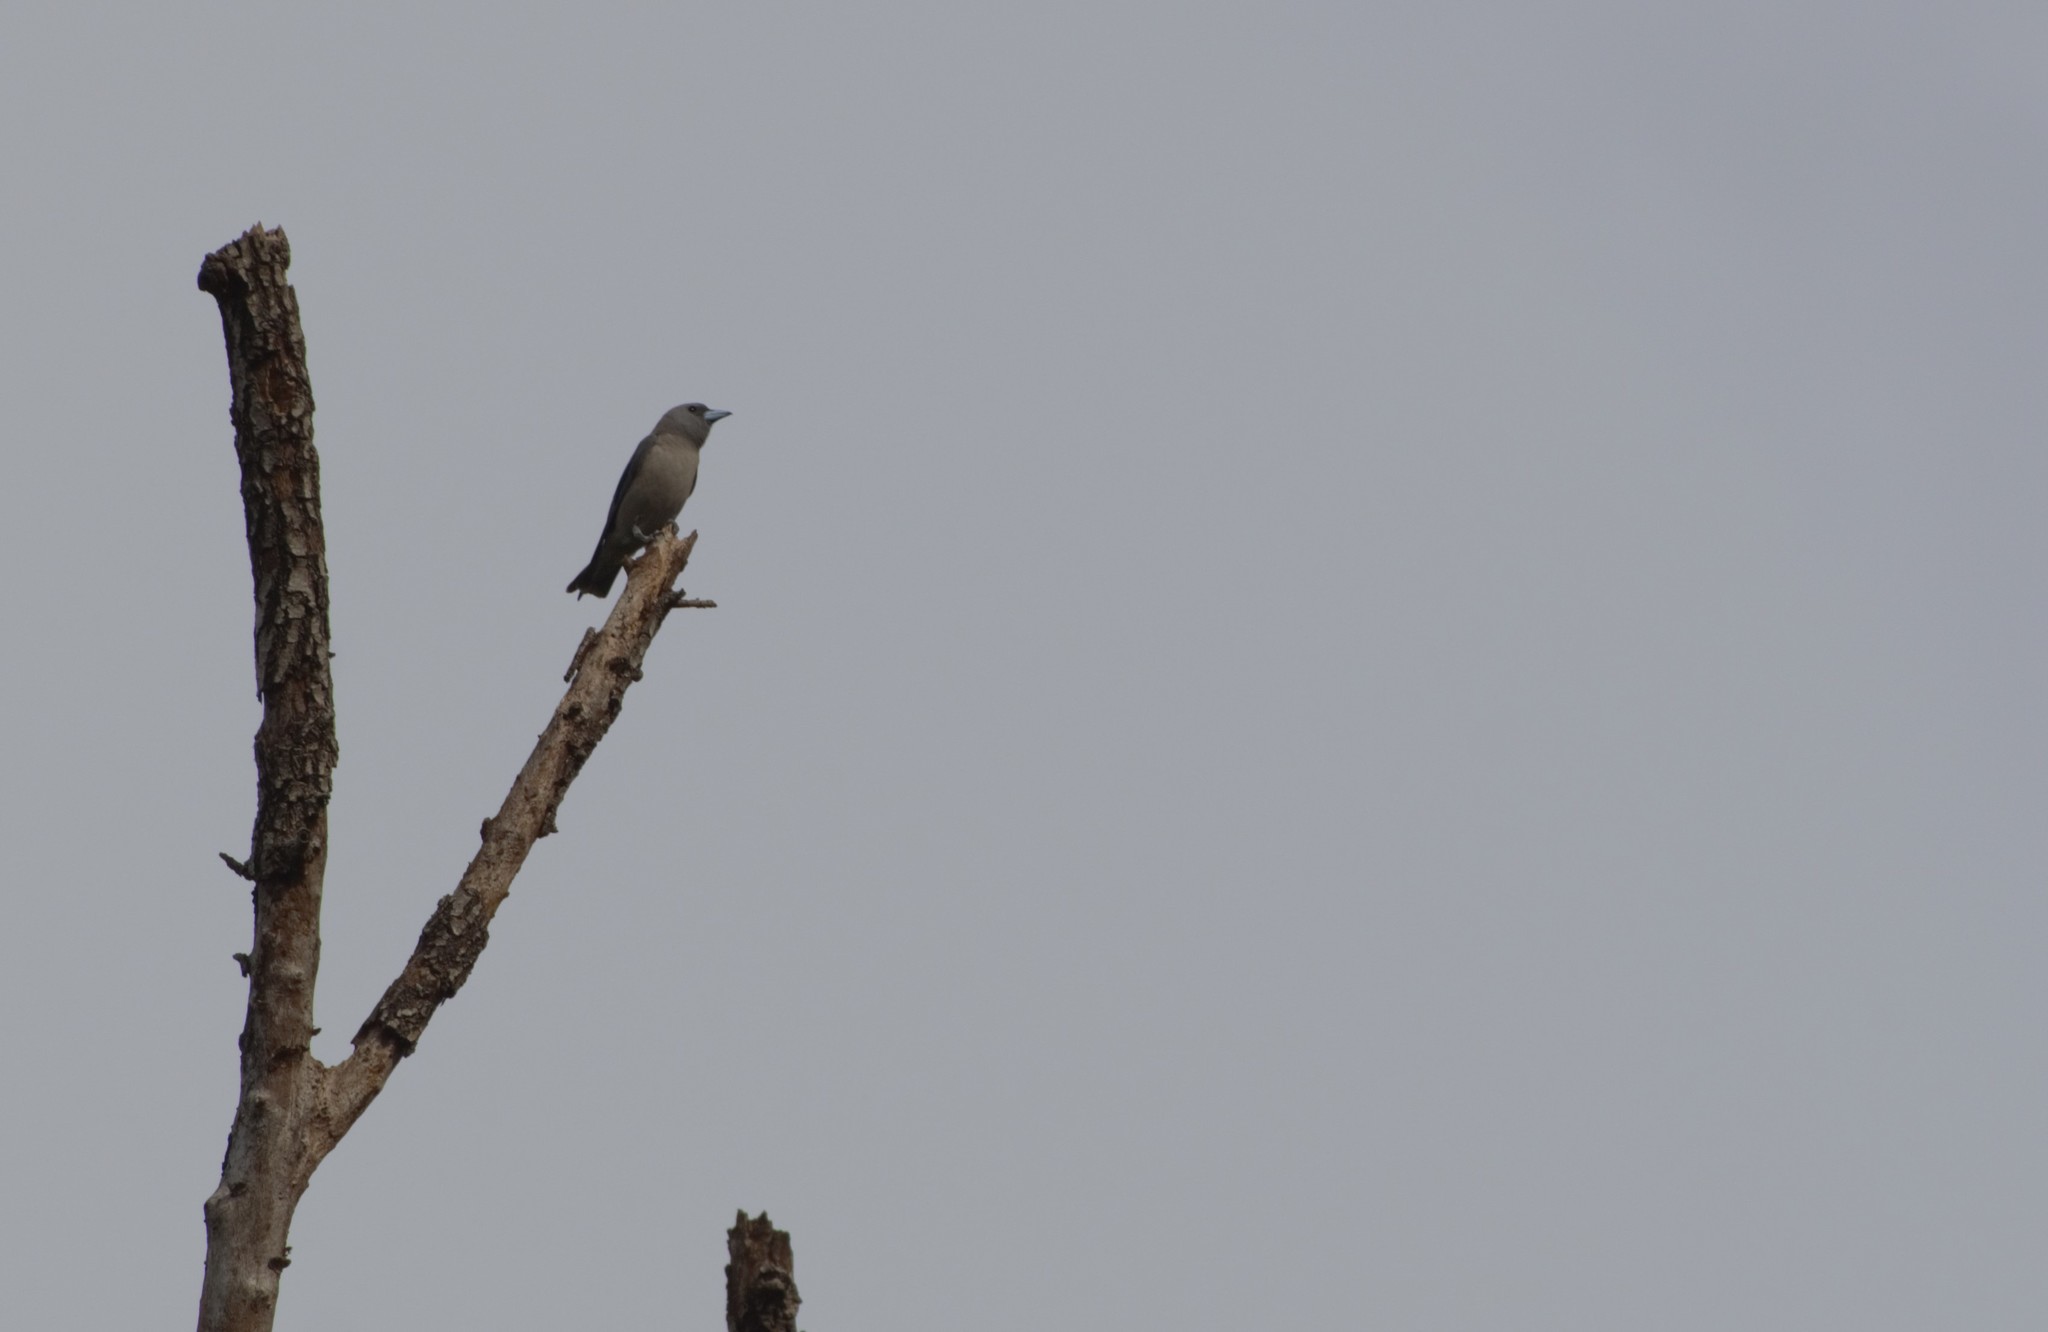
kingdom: Animalia
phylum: Chordata
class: Aves
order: Passeriformes
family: Artamidae
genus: Artamus
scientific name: Artamus fuscus
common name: Ashy woodswallow
